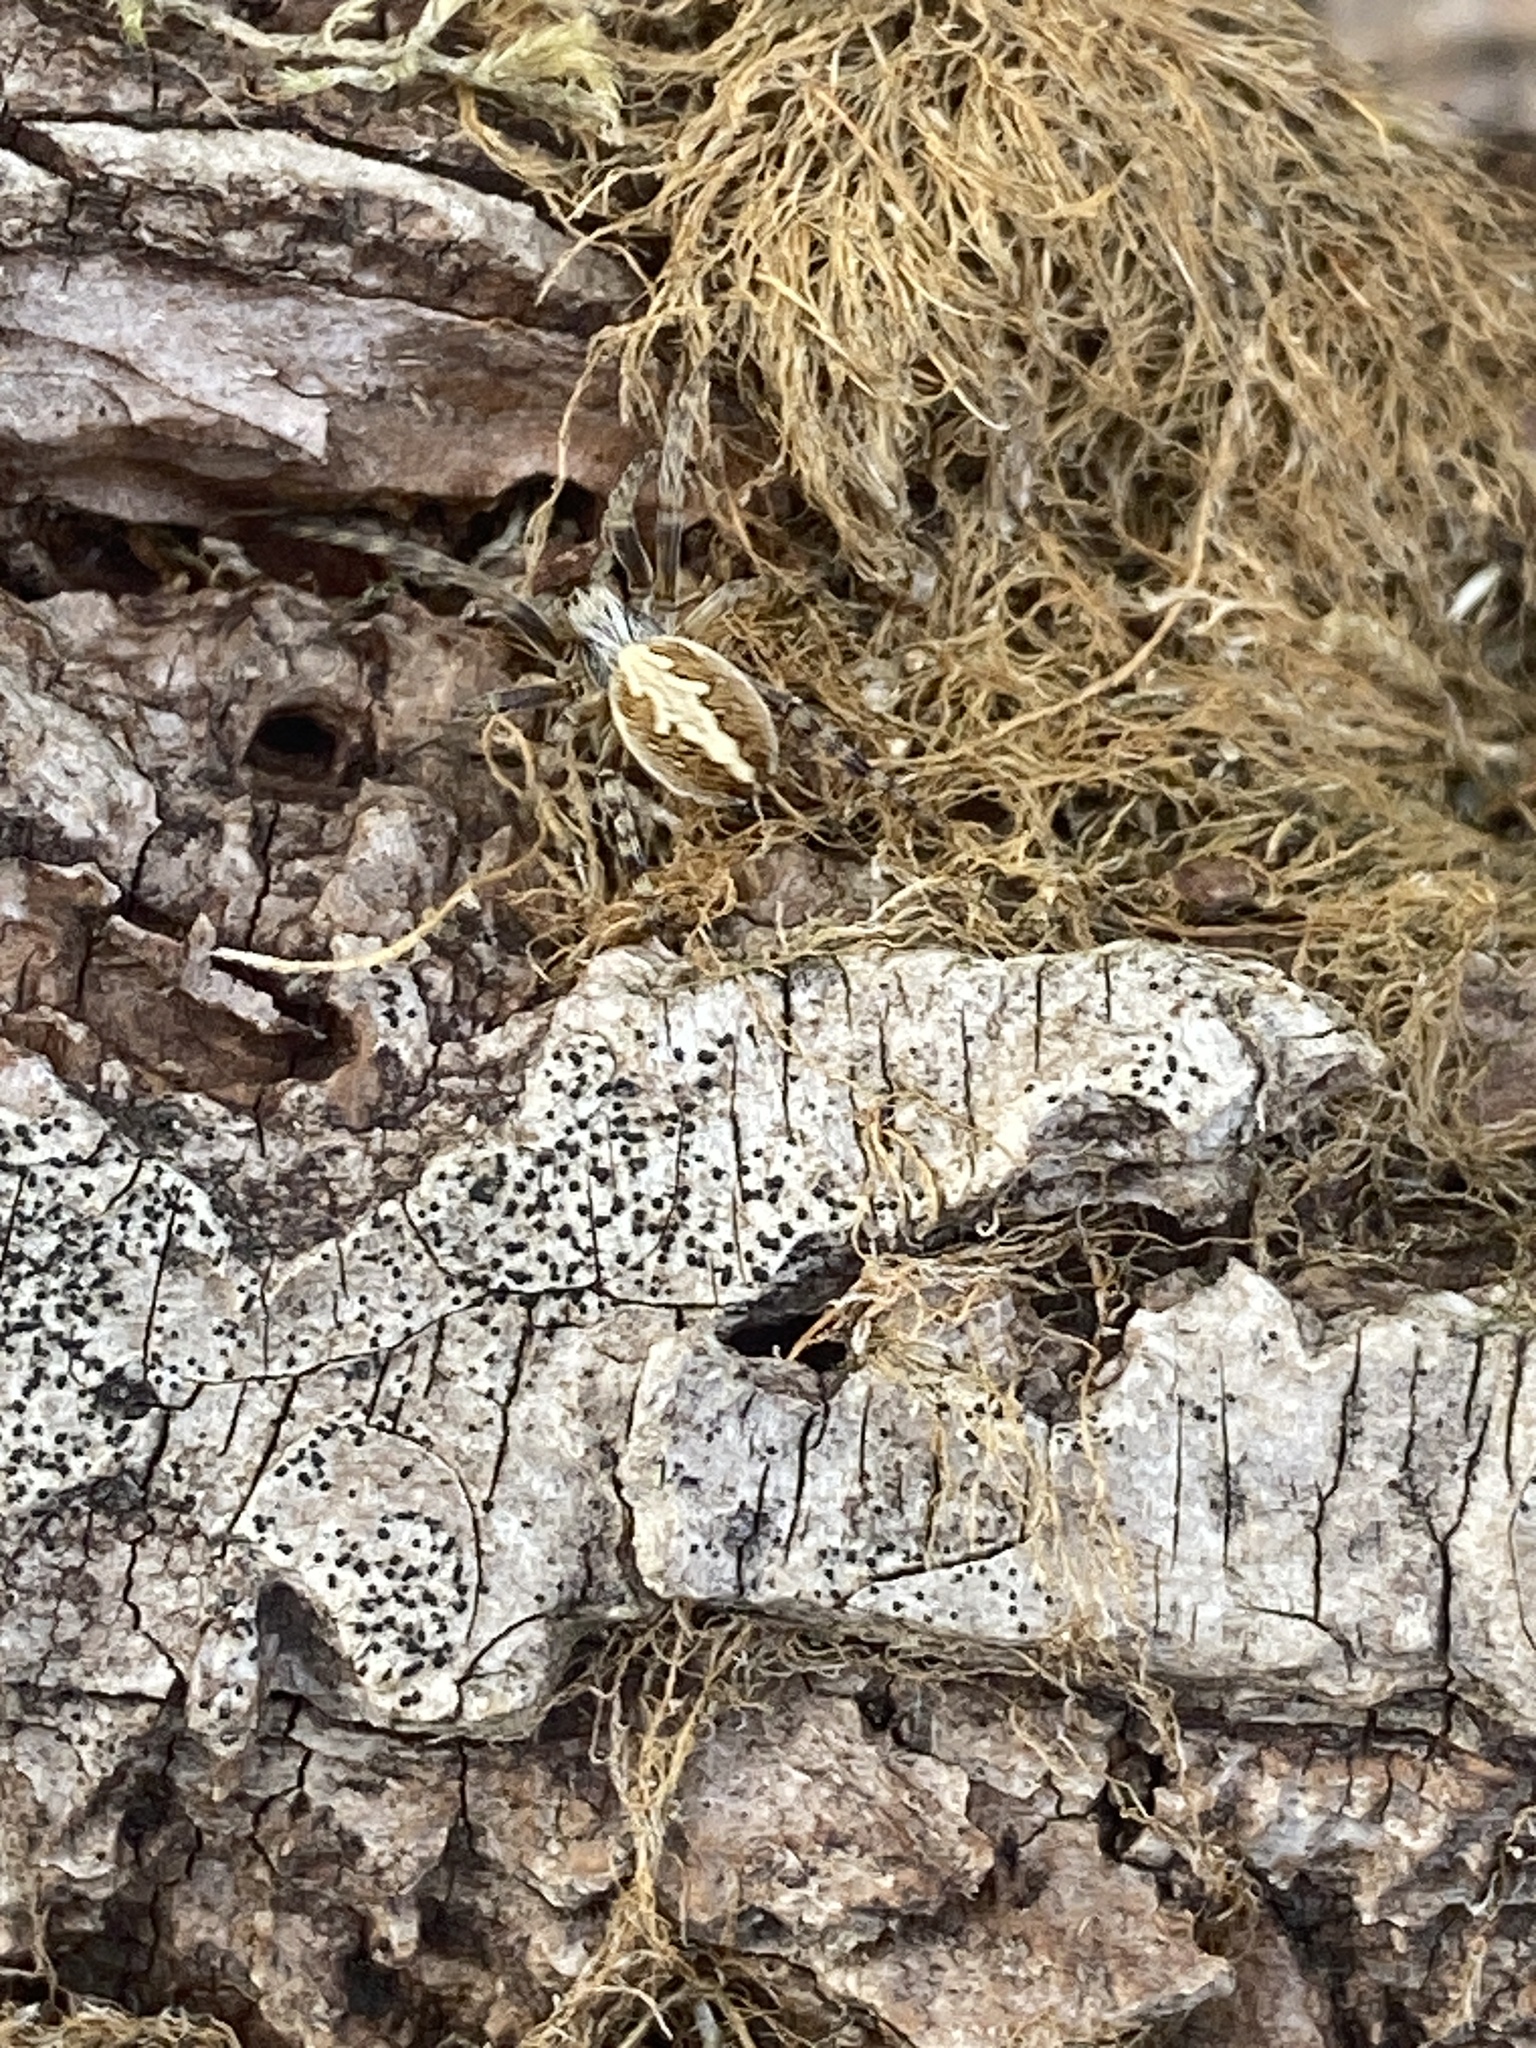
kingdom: Animalia
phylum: Arthropoda
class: Arachnida
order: Araneae
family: Araneidae
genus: Aculepeira
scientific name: Aculepeira ceropegia
